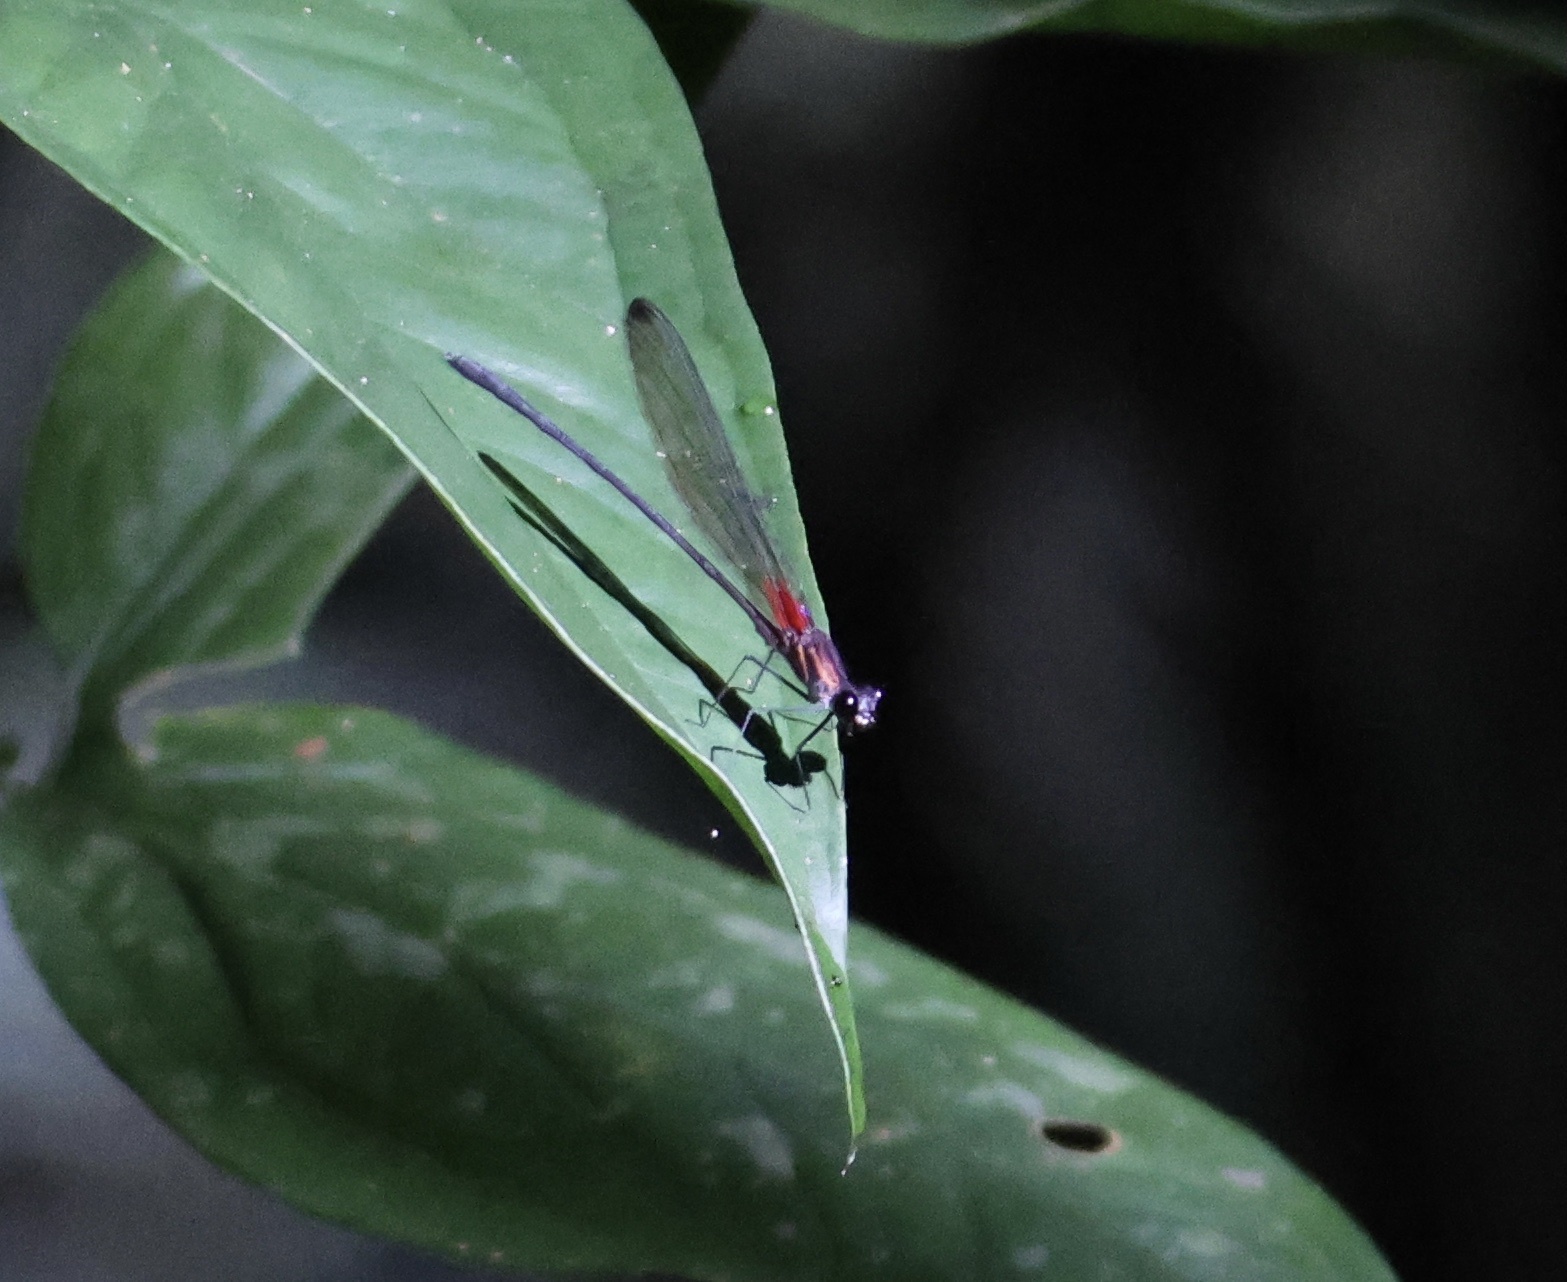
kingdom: Animalia
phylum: Arthropoda
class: Insecta
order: Odonata
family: Calopterygidae
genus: Hetaerina
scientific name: Hetaerina fuscoguttata
